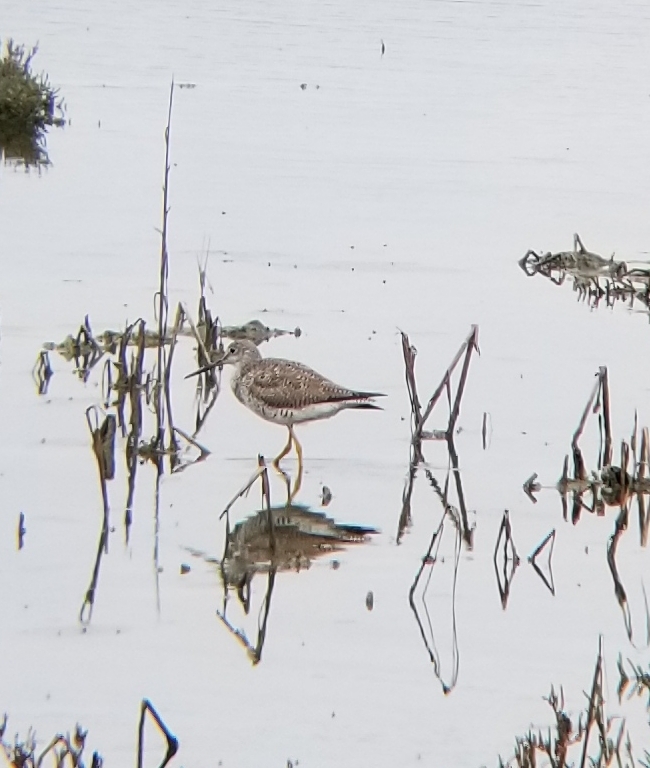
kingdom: Animalia
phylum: Chordata
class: Aves
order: Charadriiformes
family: Scolopacidae
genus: Tringa
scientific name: Tringa melanoleuca
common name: Greater yellowlegs
